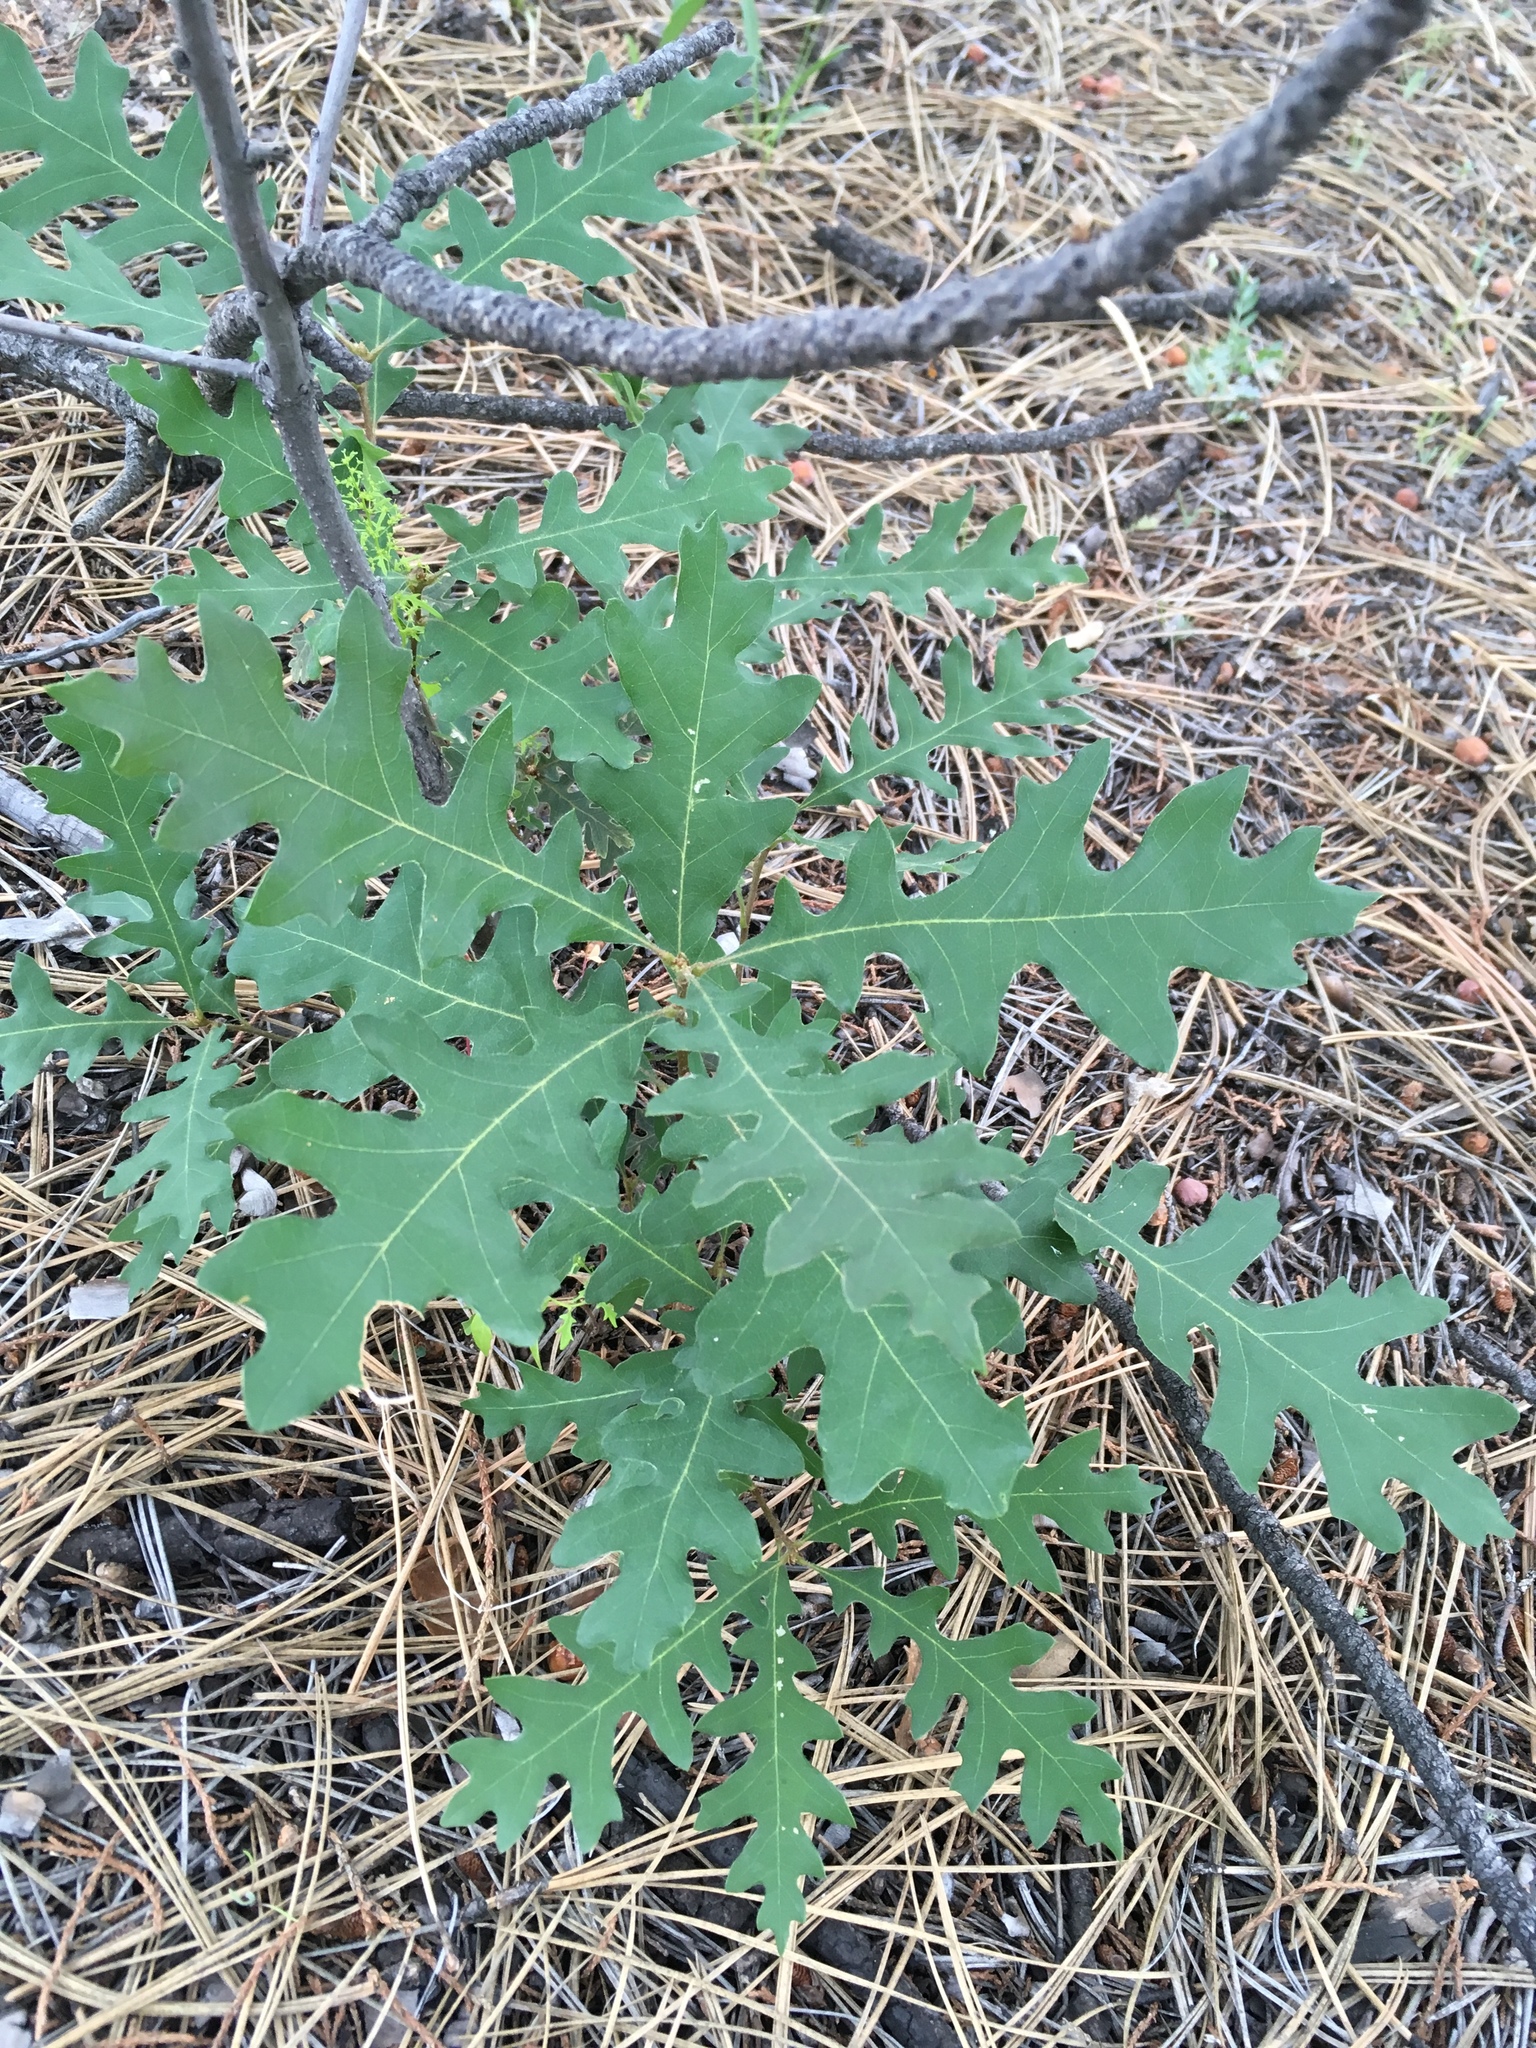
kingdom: Plantae
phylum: Tracheophyta
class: Magnoliopsida
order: Fagales
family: Fagaceae
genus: Quercus
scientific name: Quercus gambelii
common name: Gambel oak
